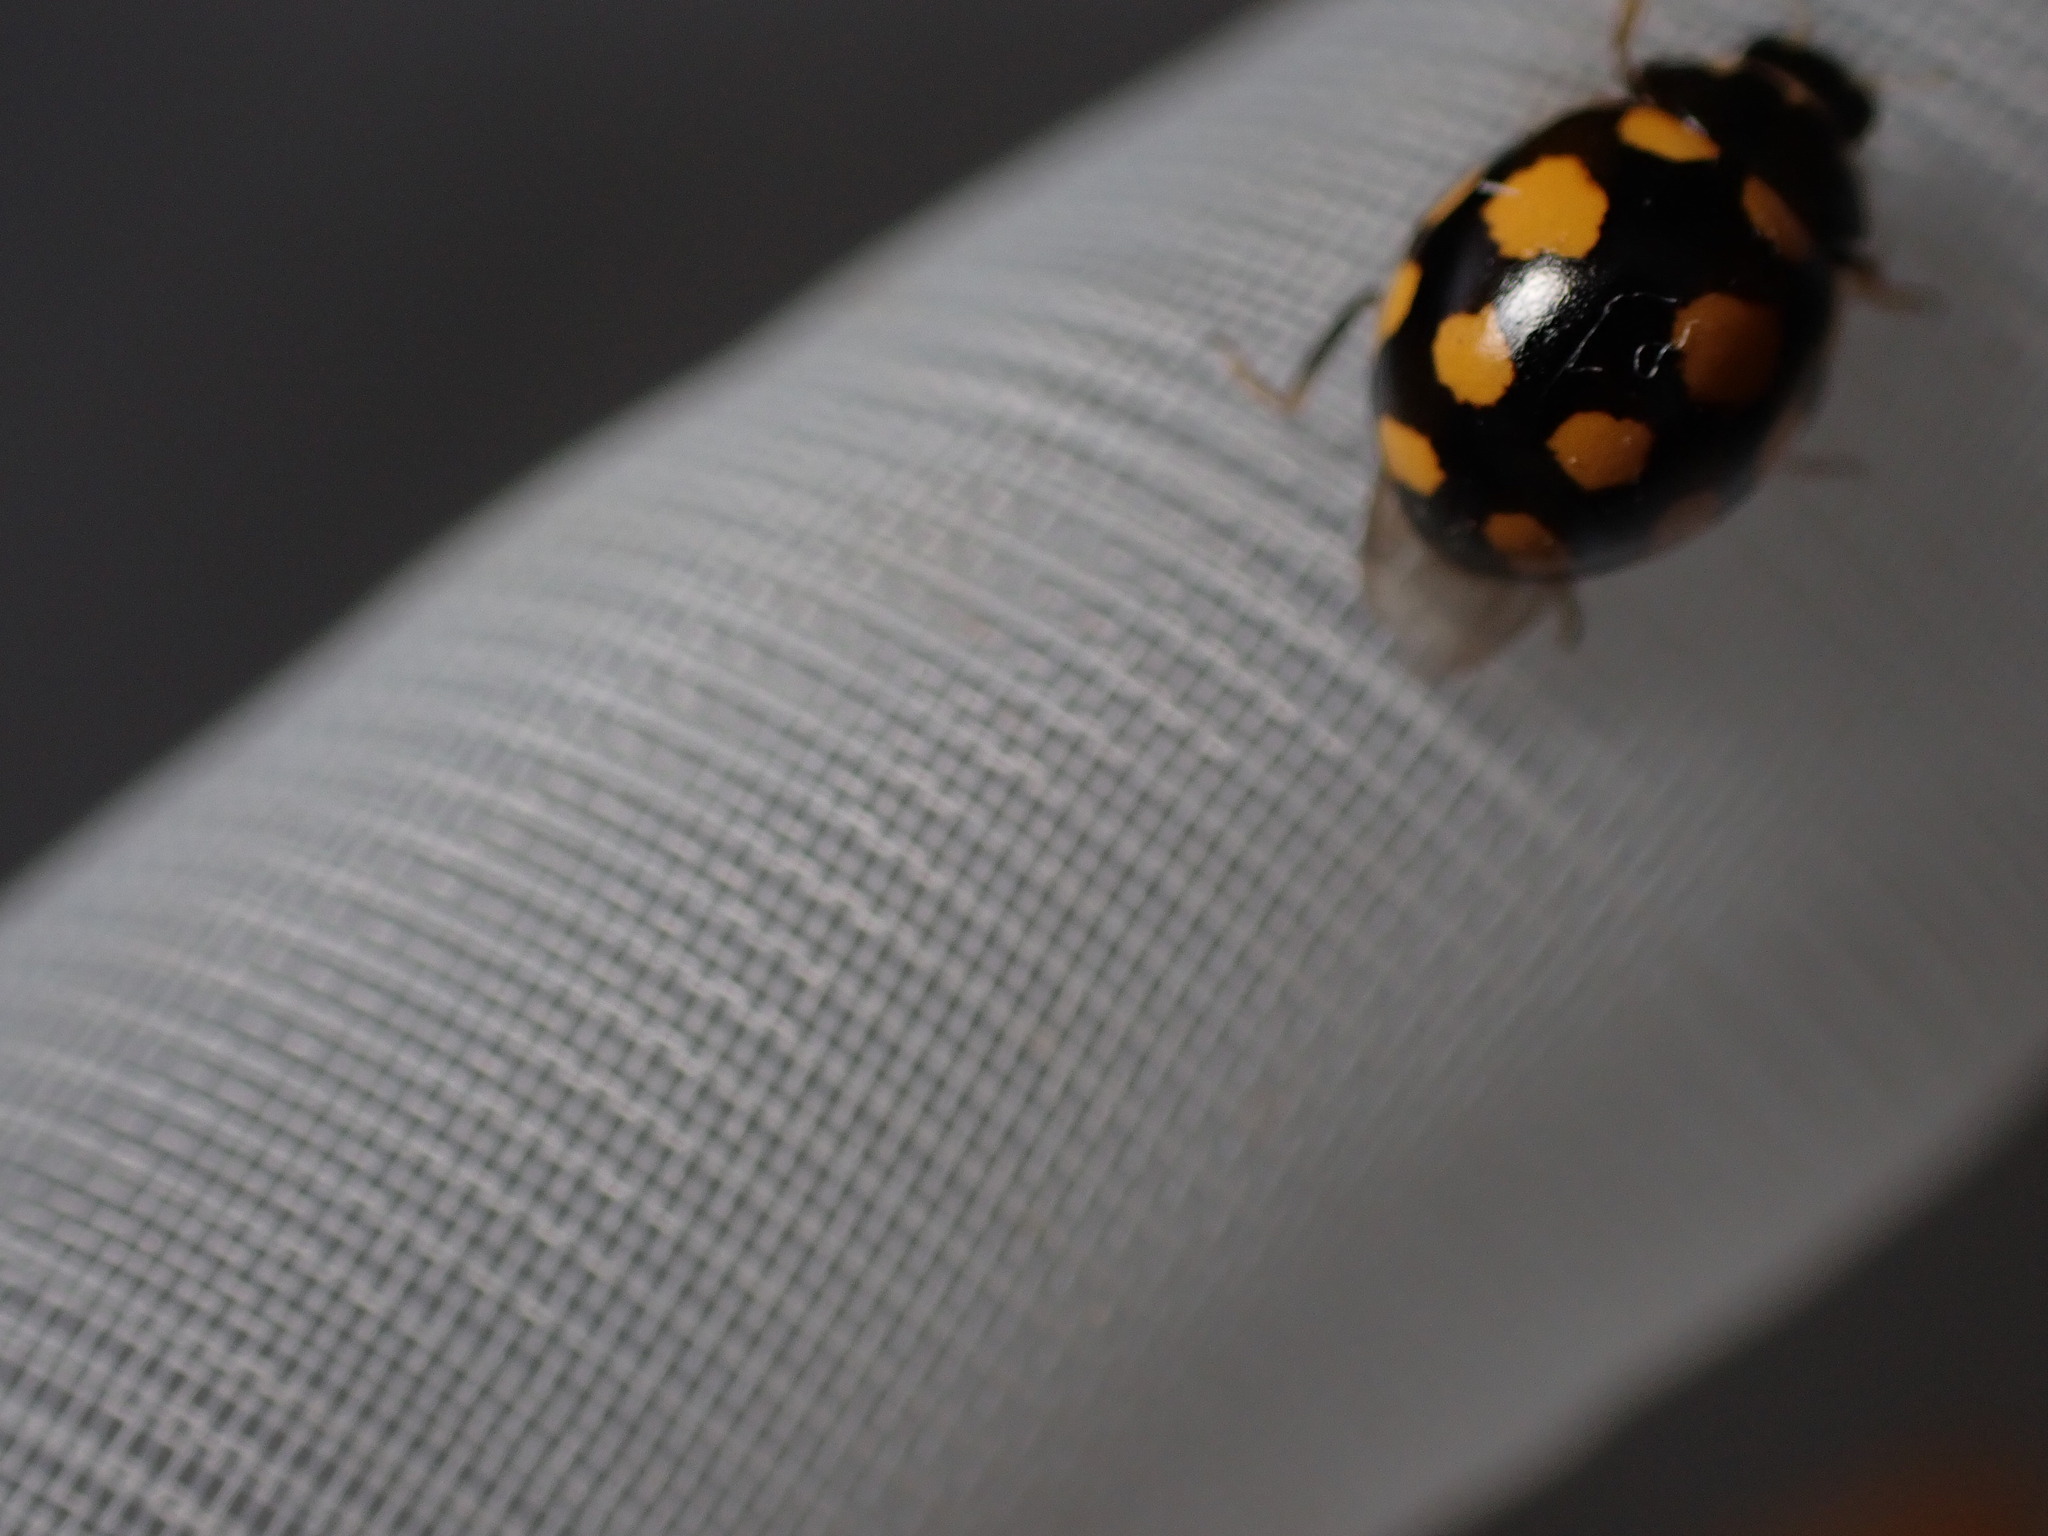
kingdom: Animalia
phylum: Arthropoda
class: Insecta
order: Coleoptera
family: Coccinellidae
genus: Coccinula
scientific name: Coccinula quatuordecimpustulata
